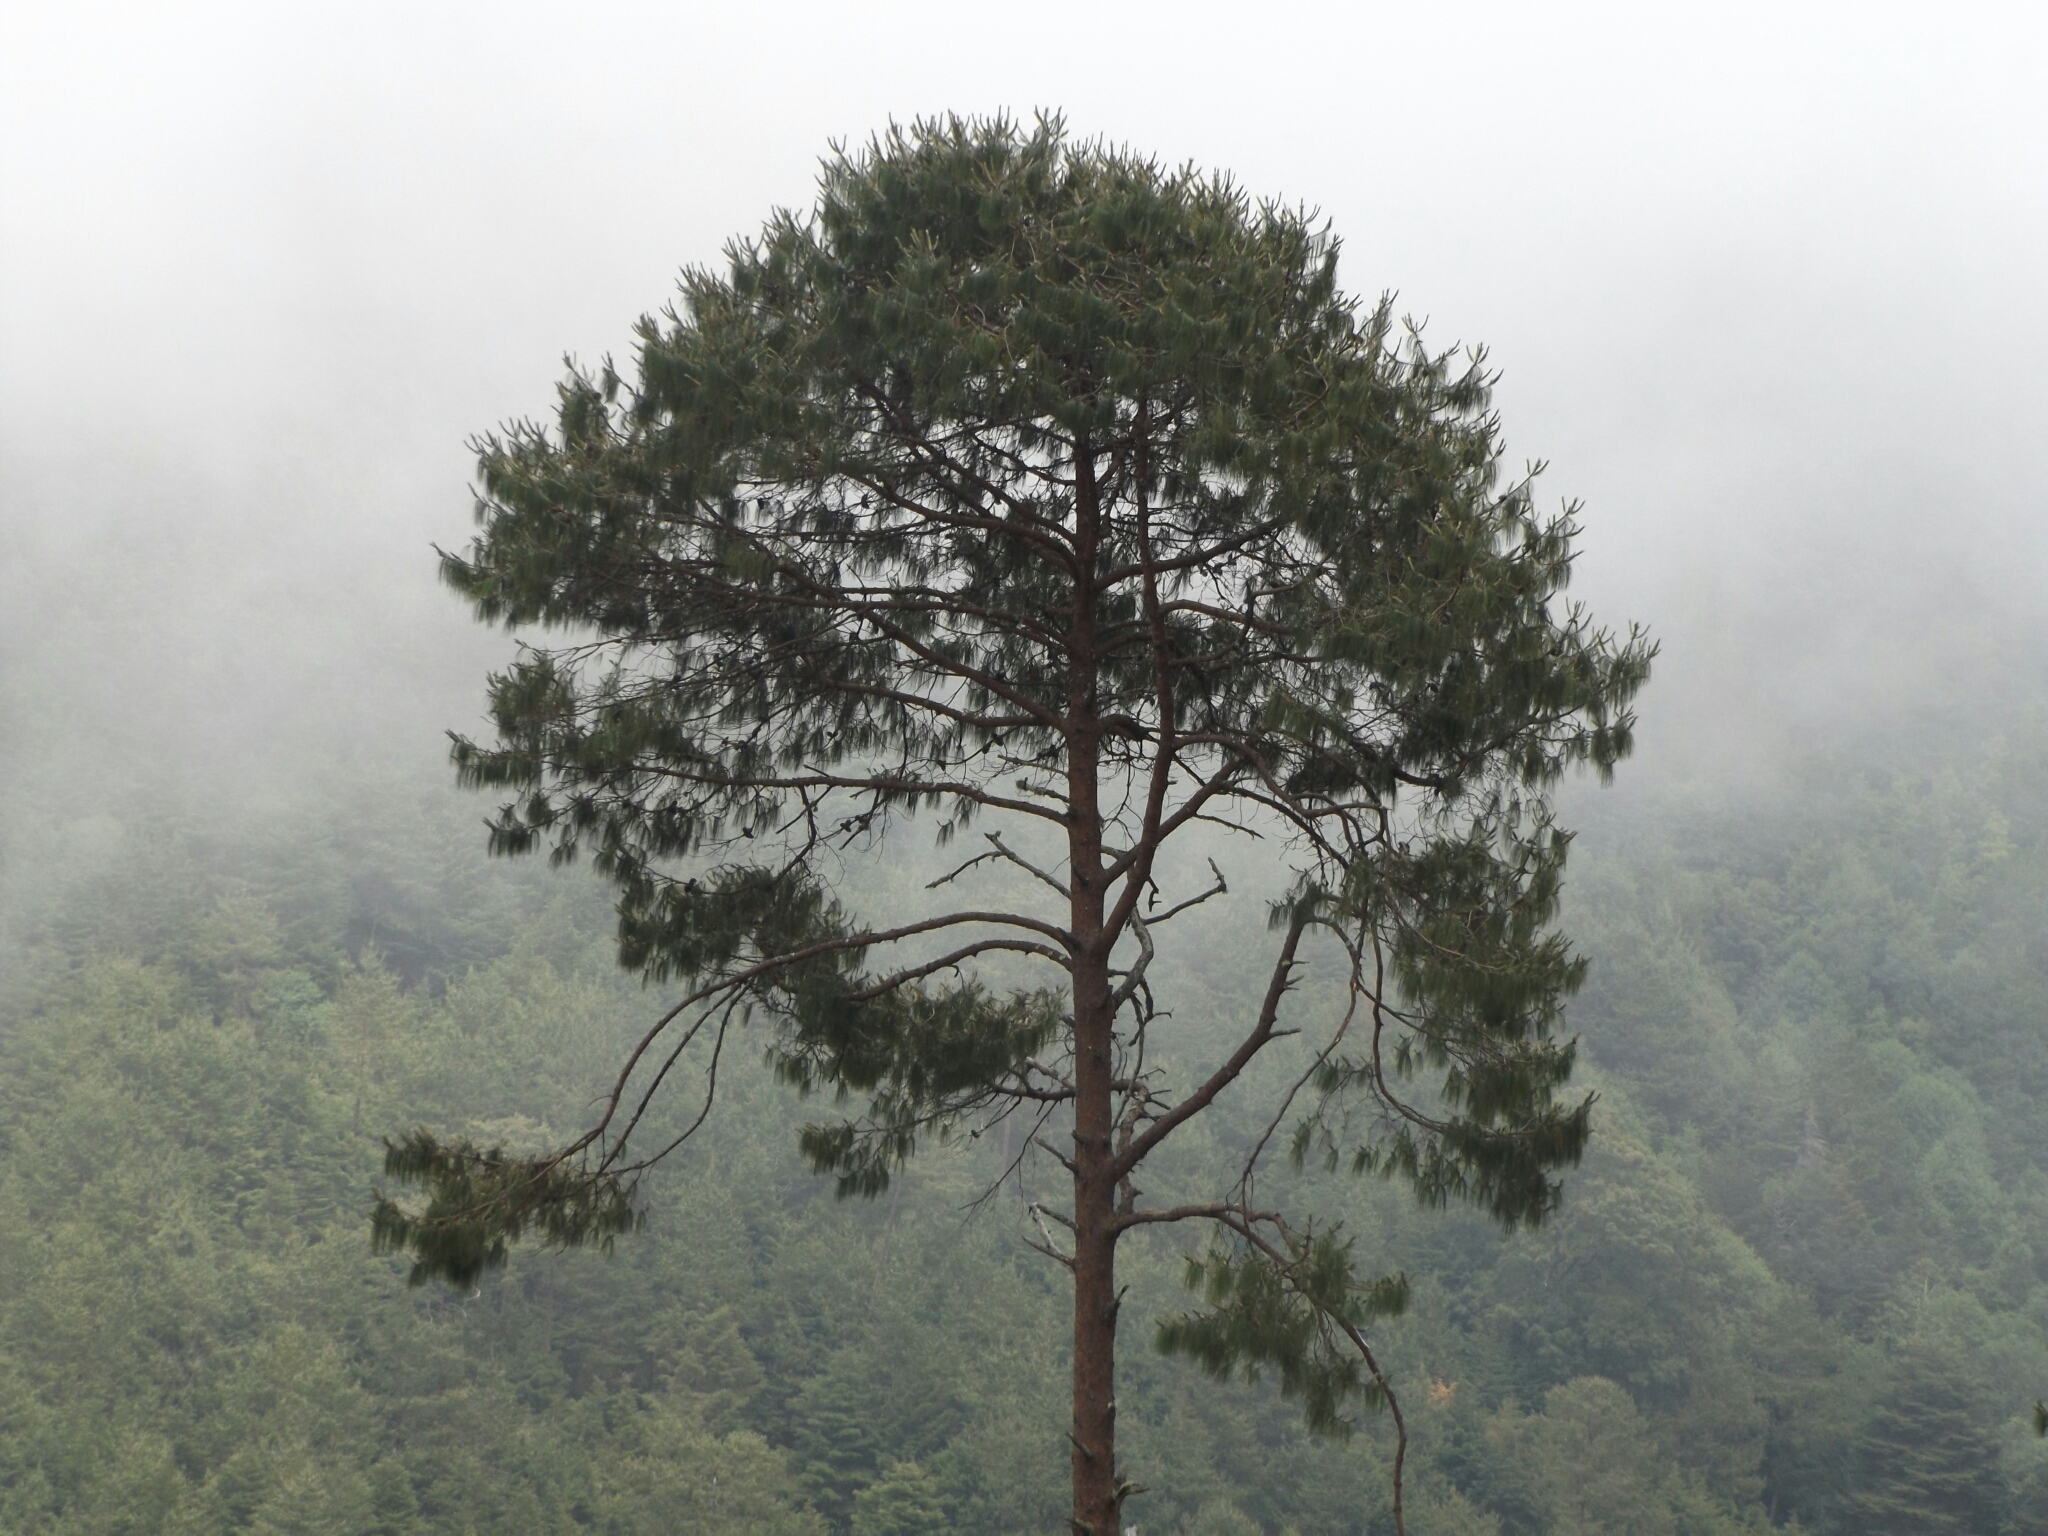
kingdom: Plantae
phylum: Tracheophyta
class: Pinopsida
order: Pinales
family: Pinaceae
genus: Pinus
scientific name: Pinus patula
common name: Mexican weeping pine
